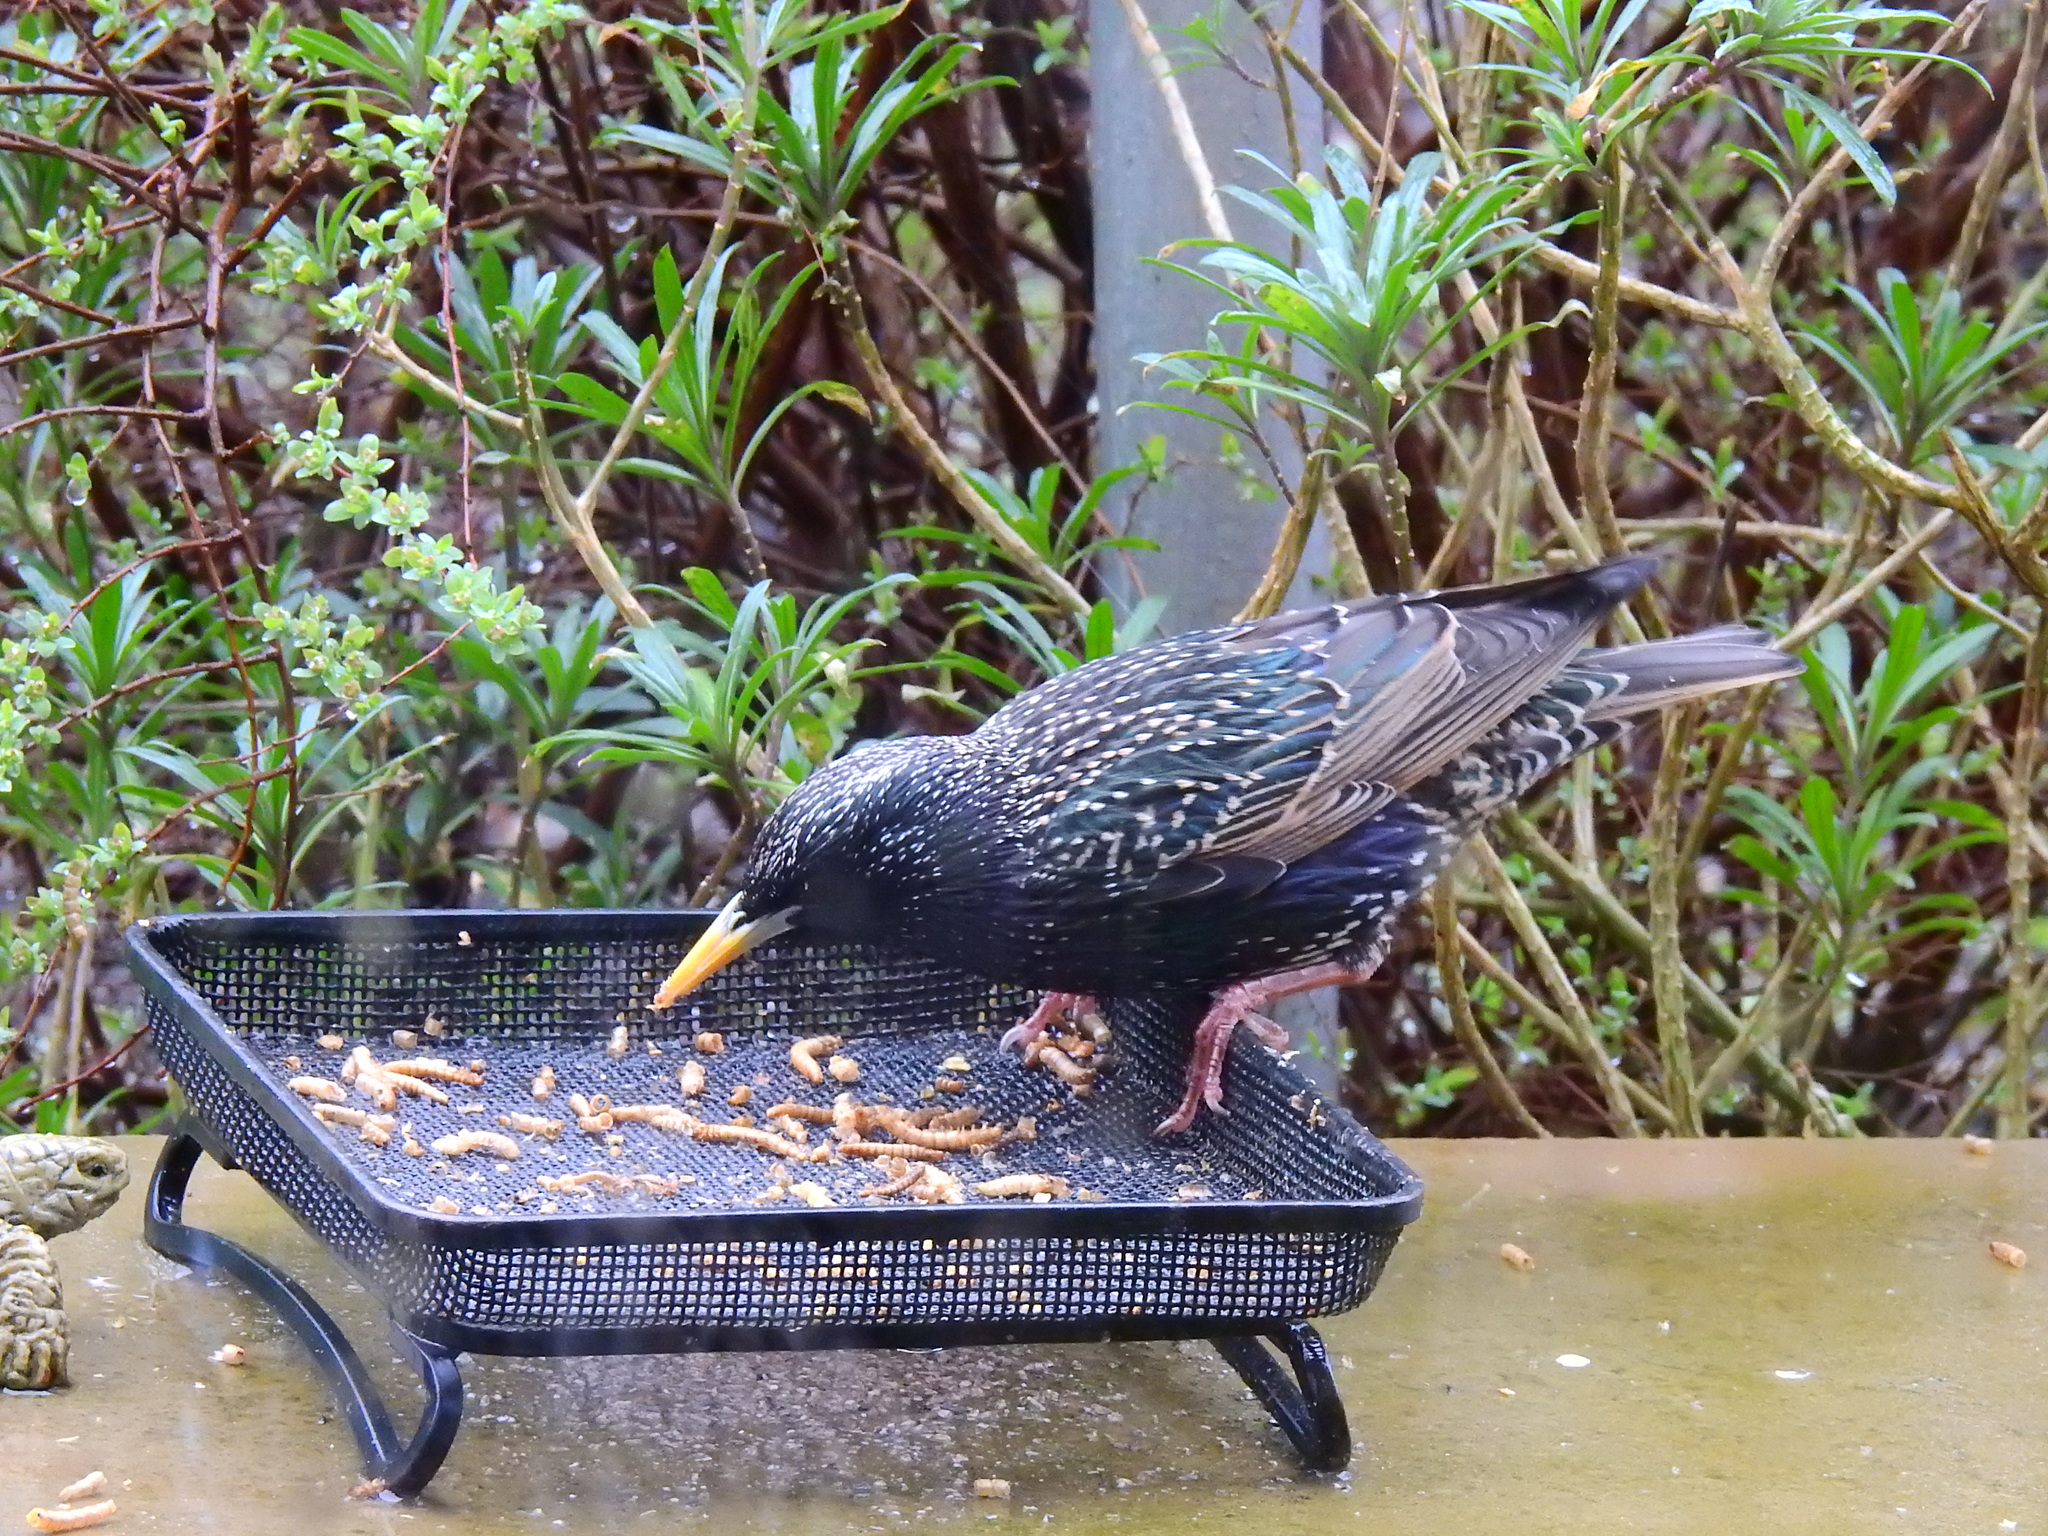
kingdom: Animalia
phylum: Chordata
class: Aves
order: Passeriformes
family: Sturnidae
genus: Sturnus
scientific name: Sturnus vulgaris
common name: Common starling
